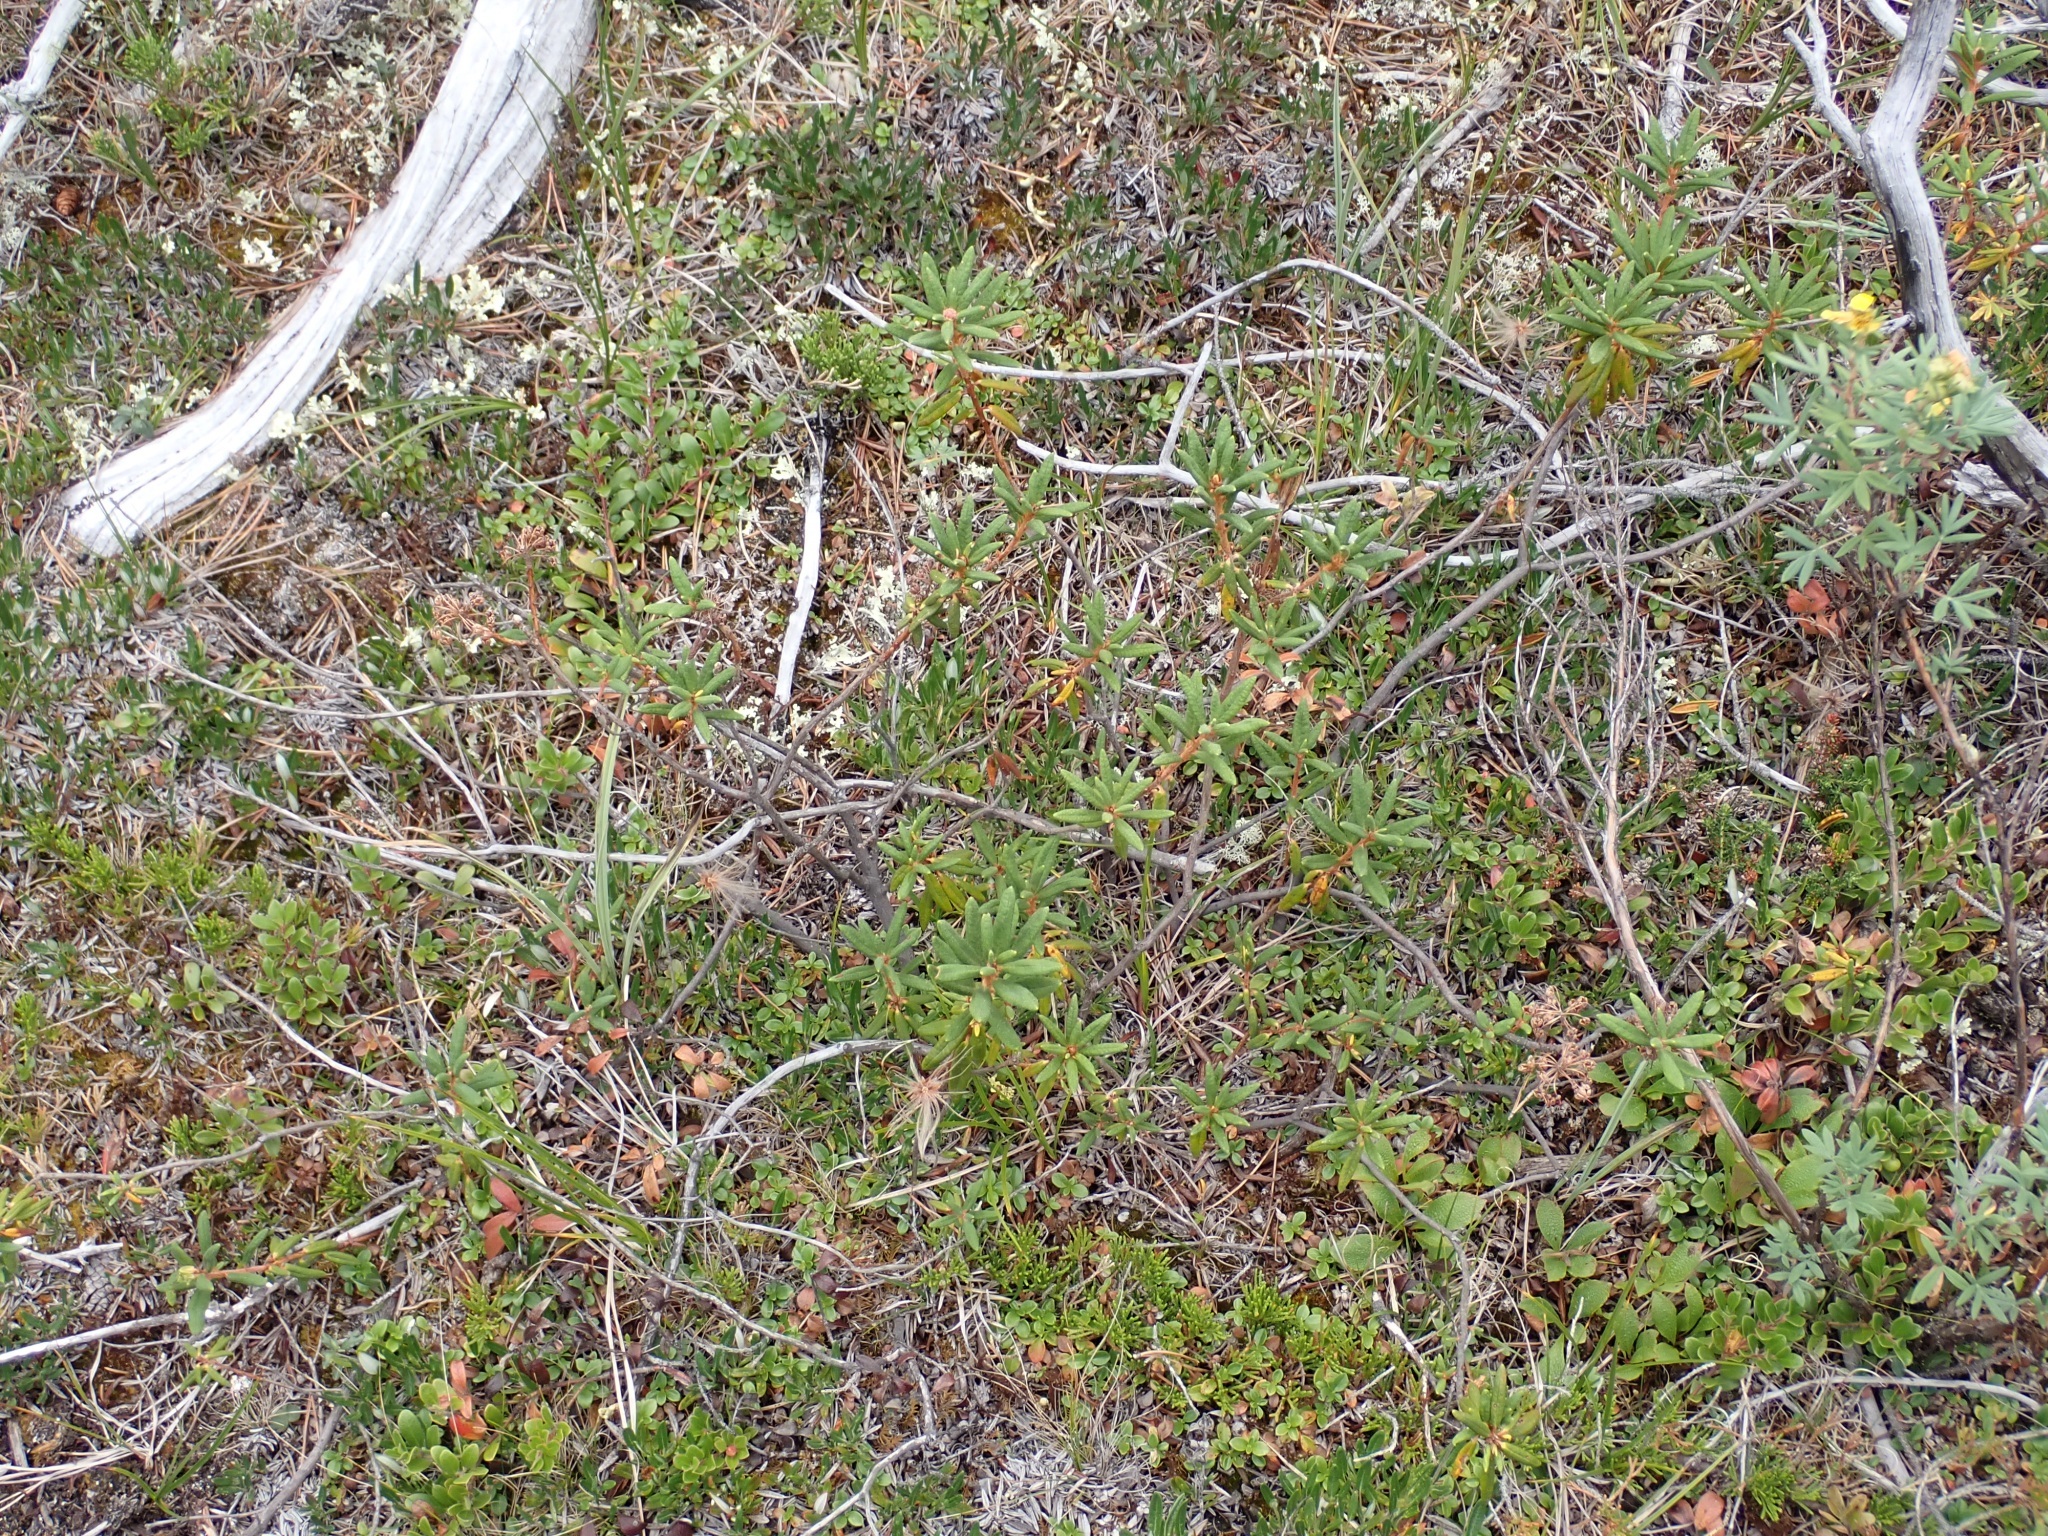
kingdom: Plantae
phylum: Tracheophyta
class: Magnoliopsida
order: Ericales
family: Ericaceae
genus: Rhododendron
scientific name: Rhododendron groenlandicum
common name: Bog labrador tea
